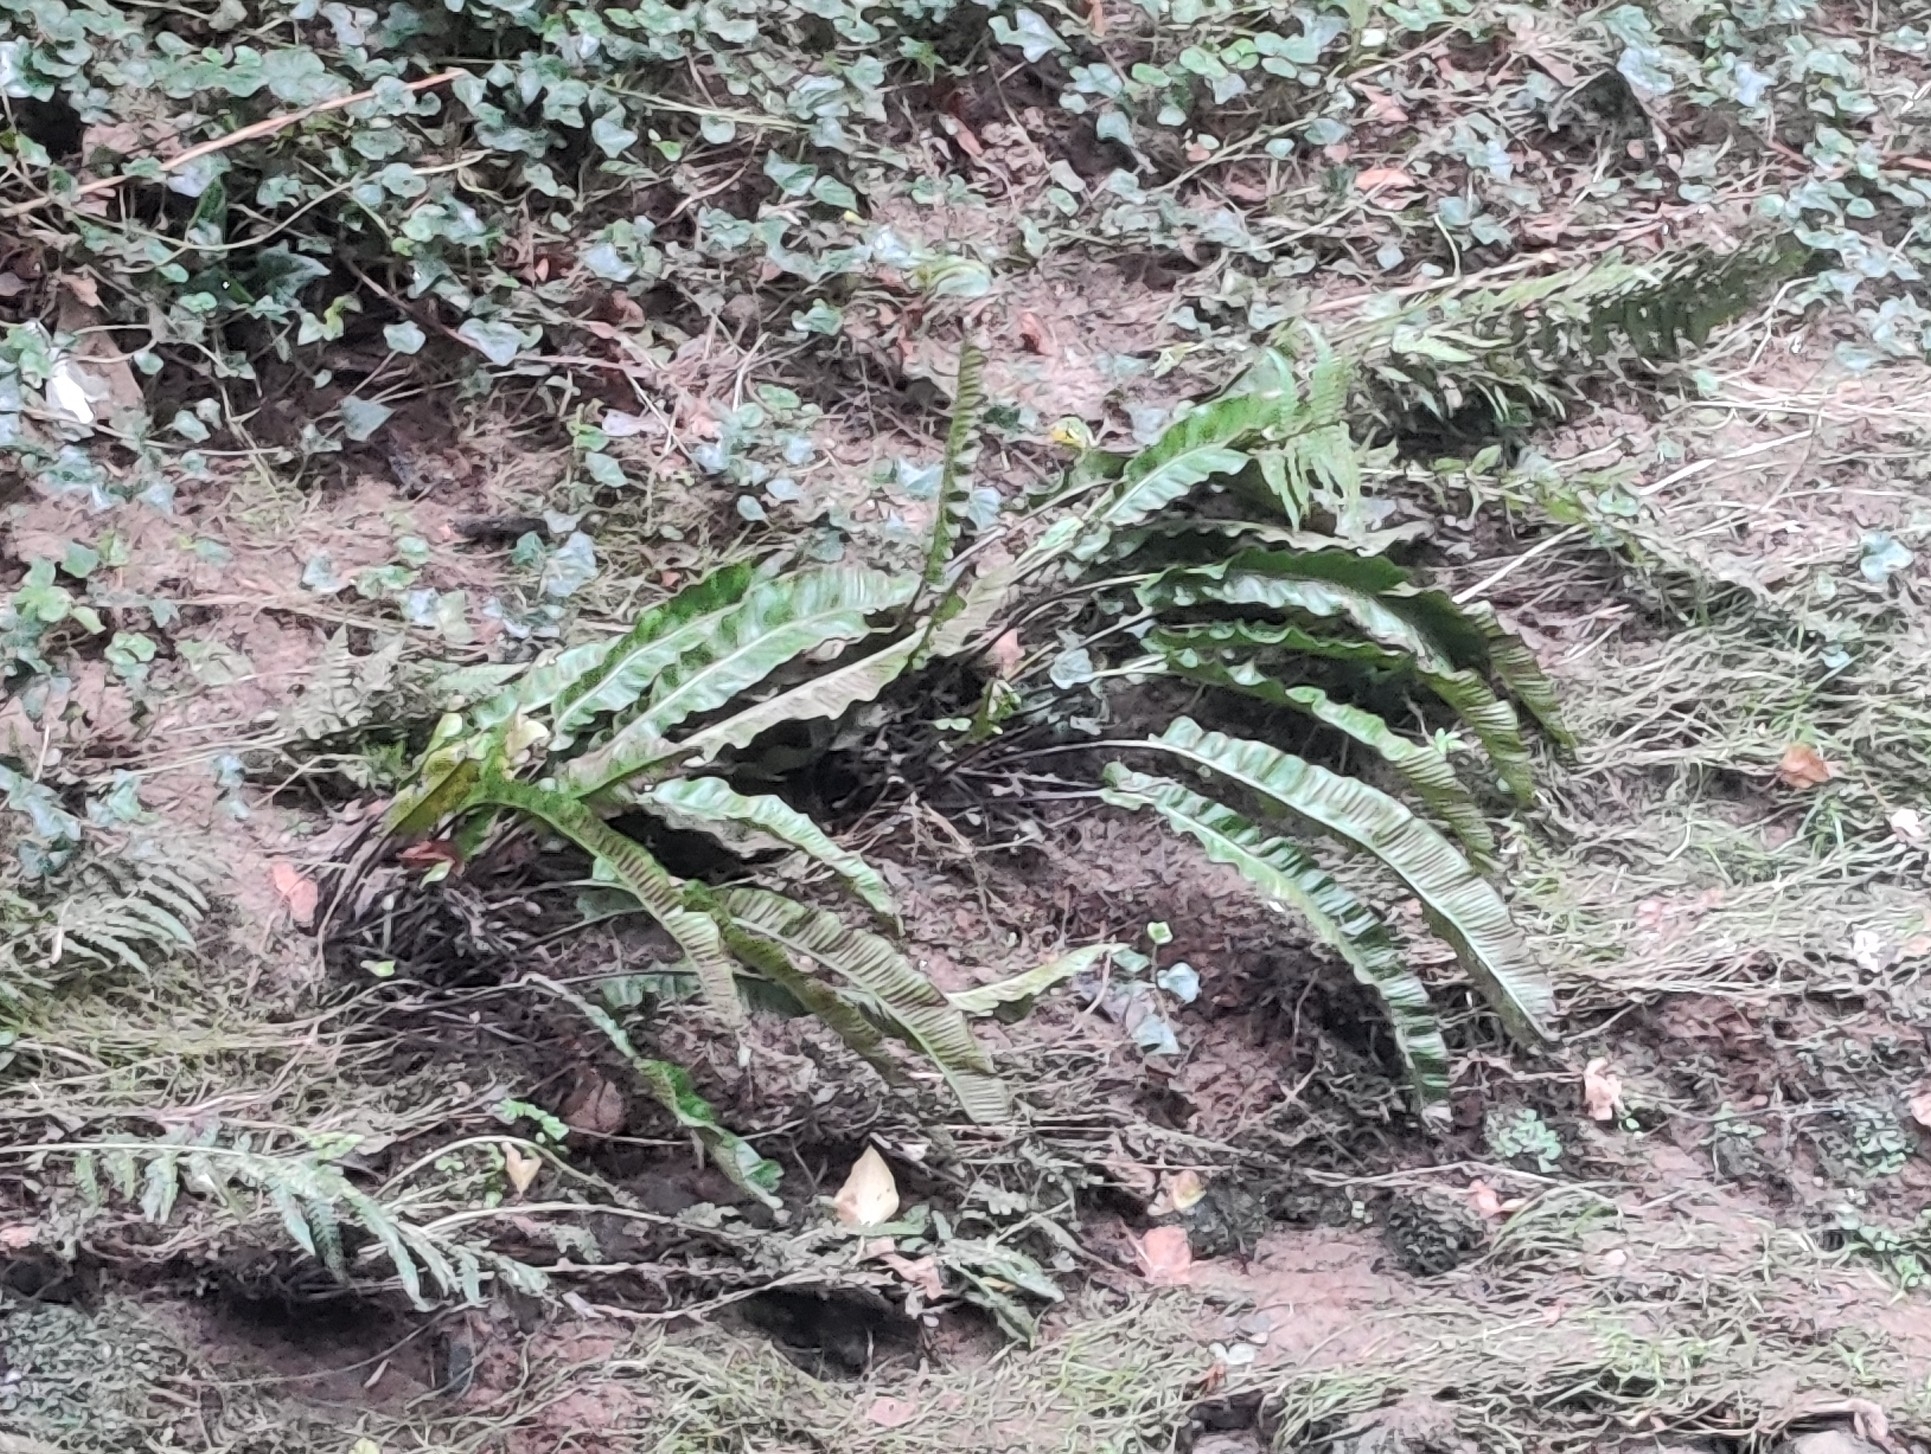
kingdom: Plantae
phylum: Tracheophyta
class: Polypodiopsida
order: Polypodiales
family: Aspleniaceae
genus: Asplenium
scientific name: Asplenium scolopendrium
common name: Hart's-tongue fern
